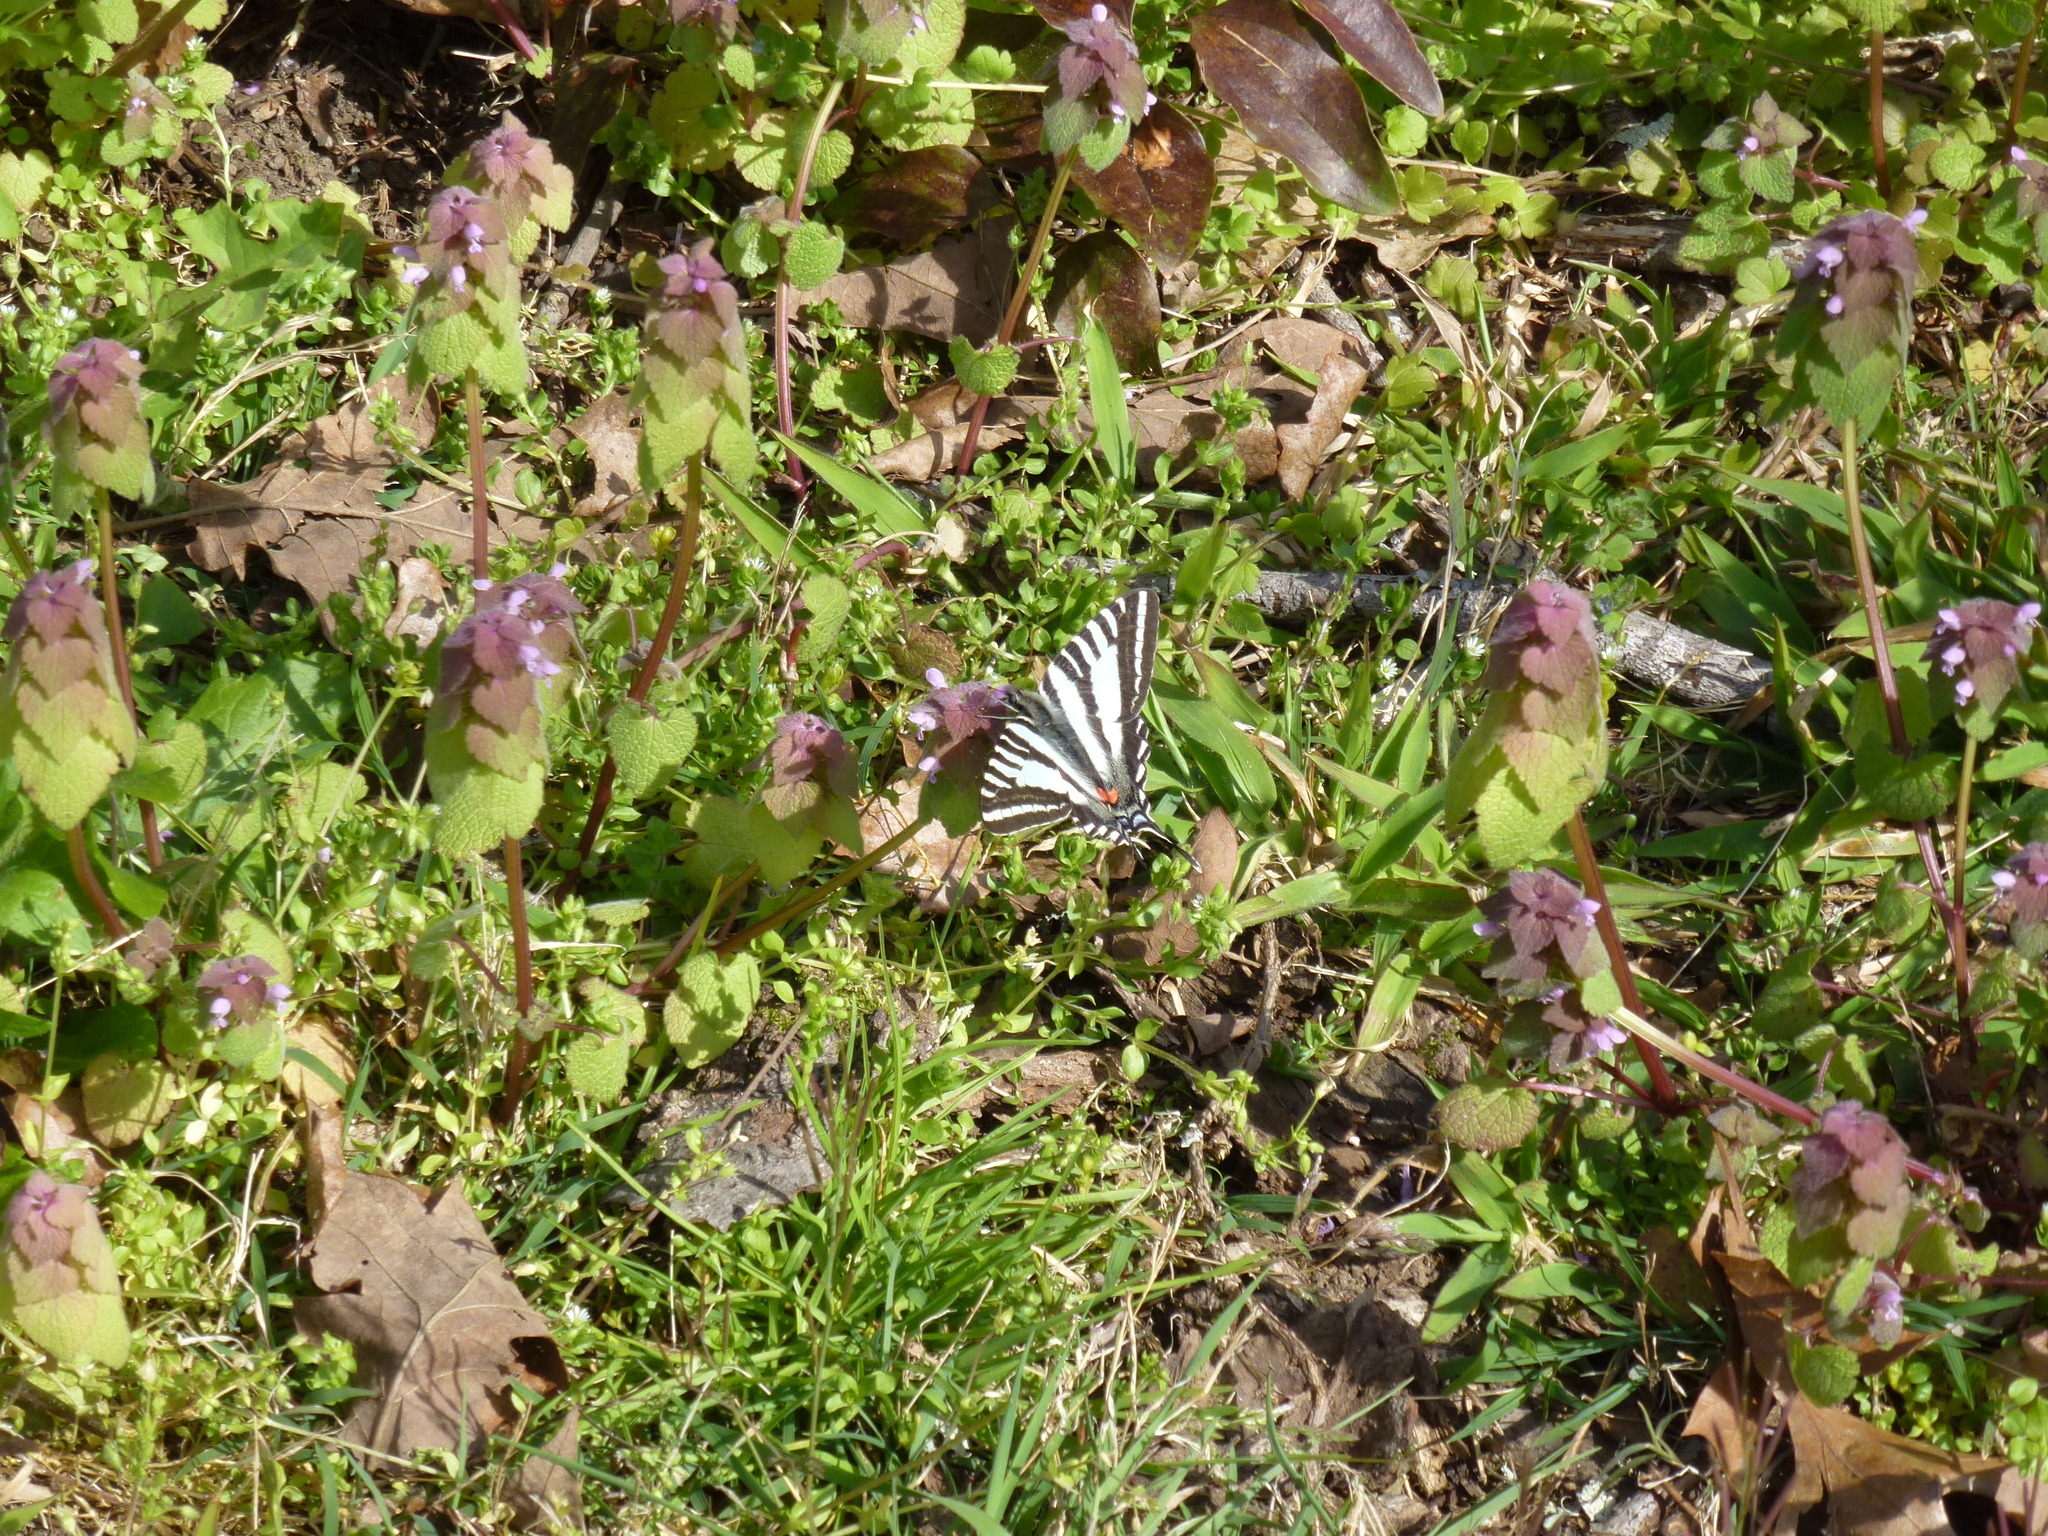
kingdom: Animalia
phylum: Arthropoda
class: Insecta
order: Lepidoptera
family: Papilionidae
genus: Protographium
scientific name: Protographium marcellus
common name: Zebra swallowtail
